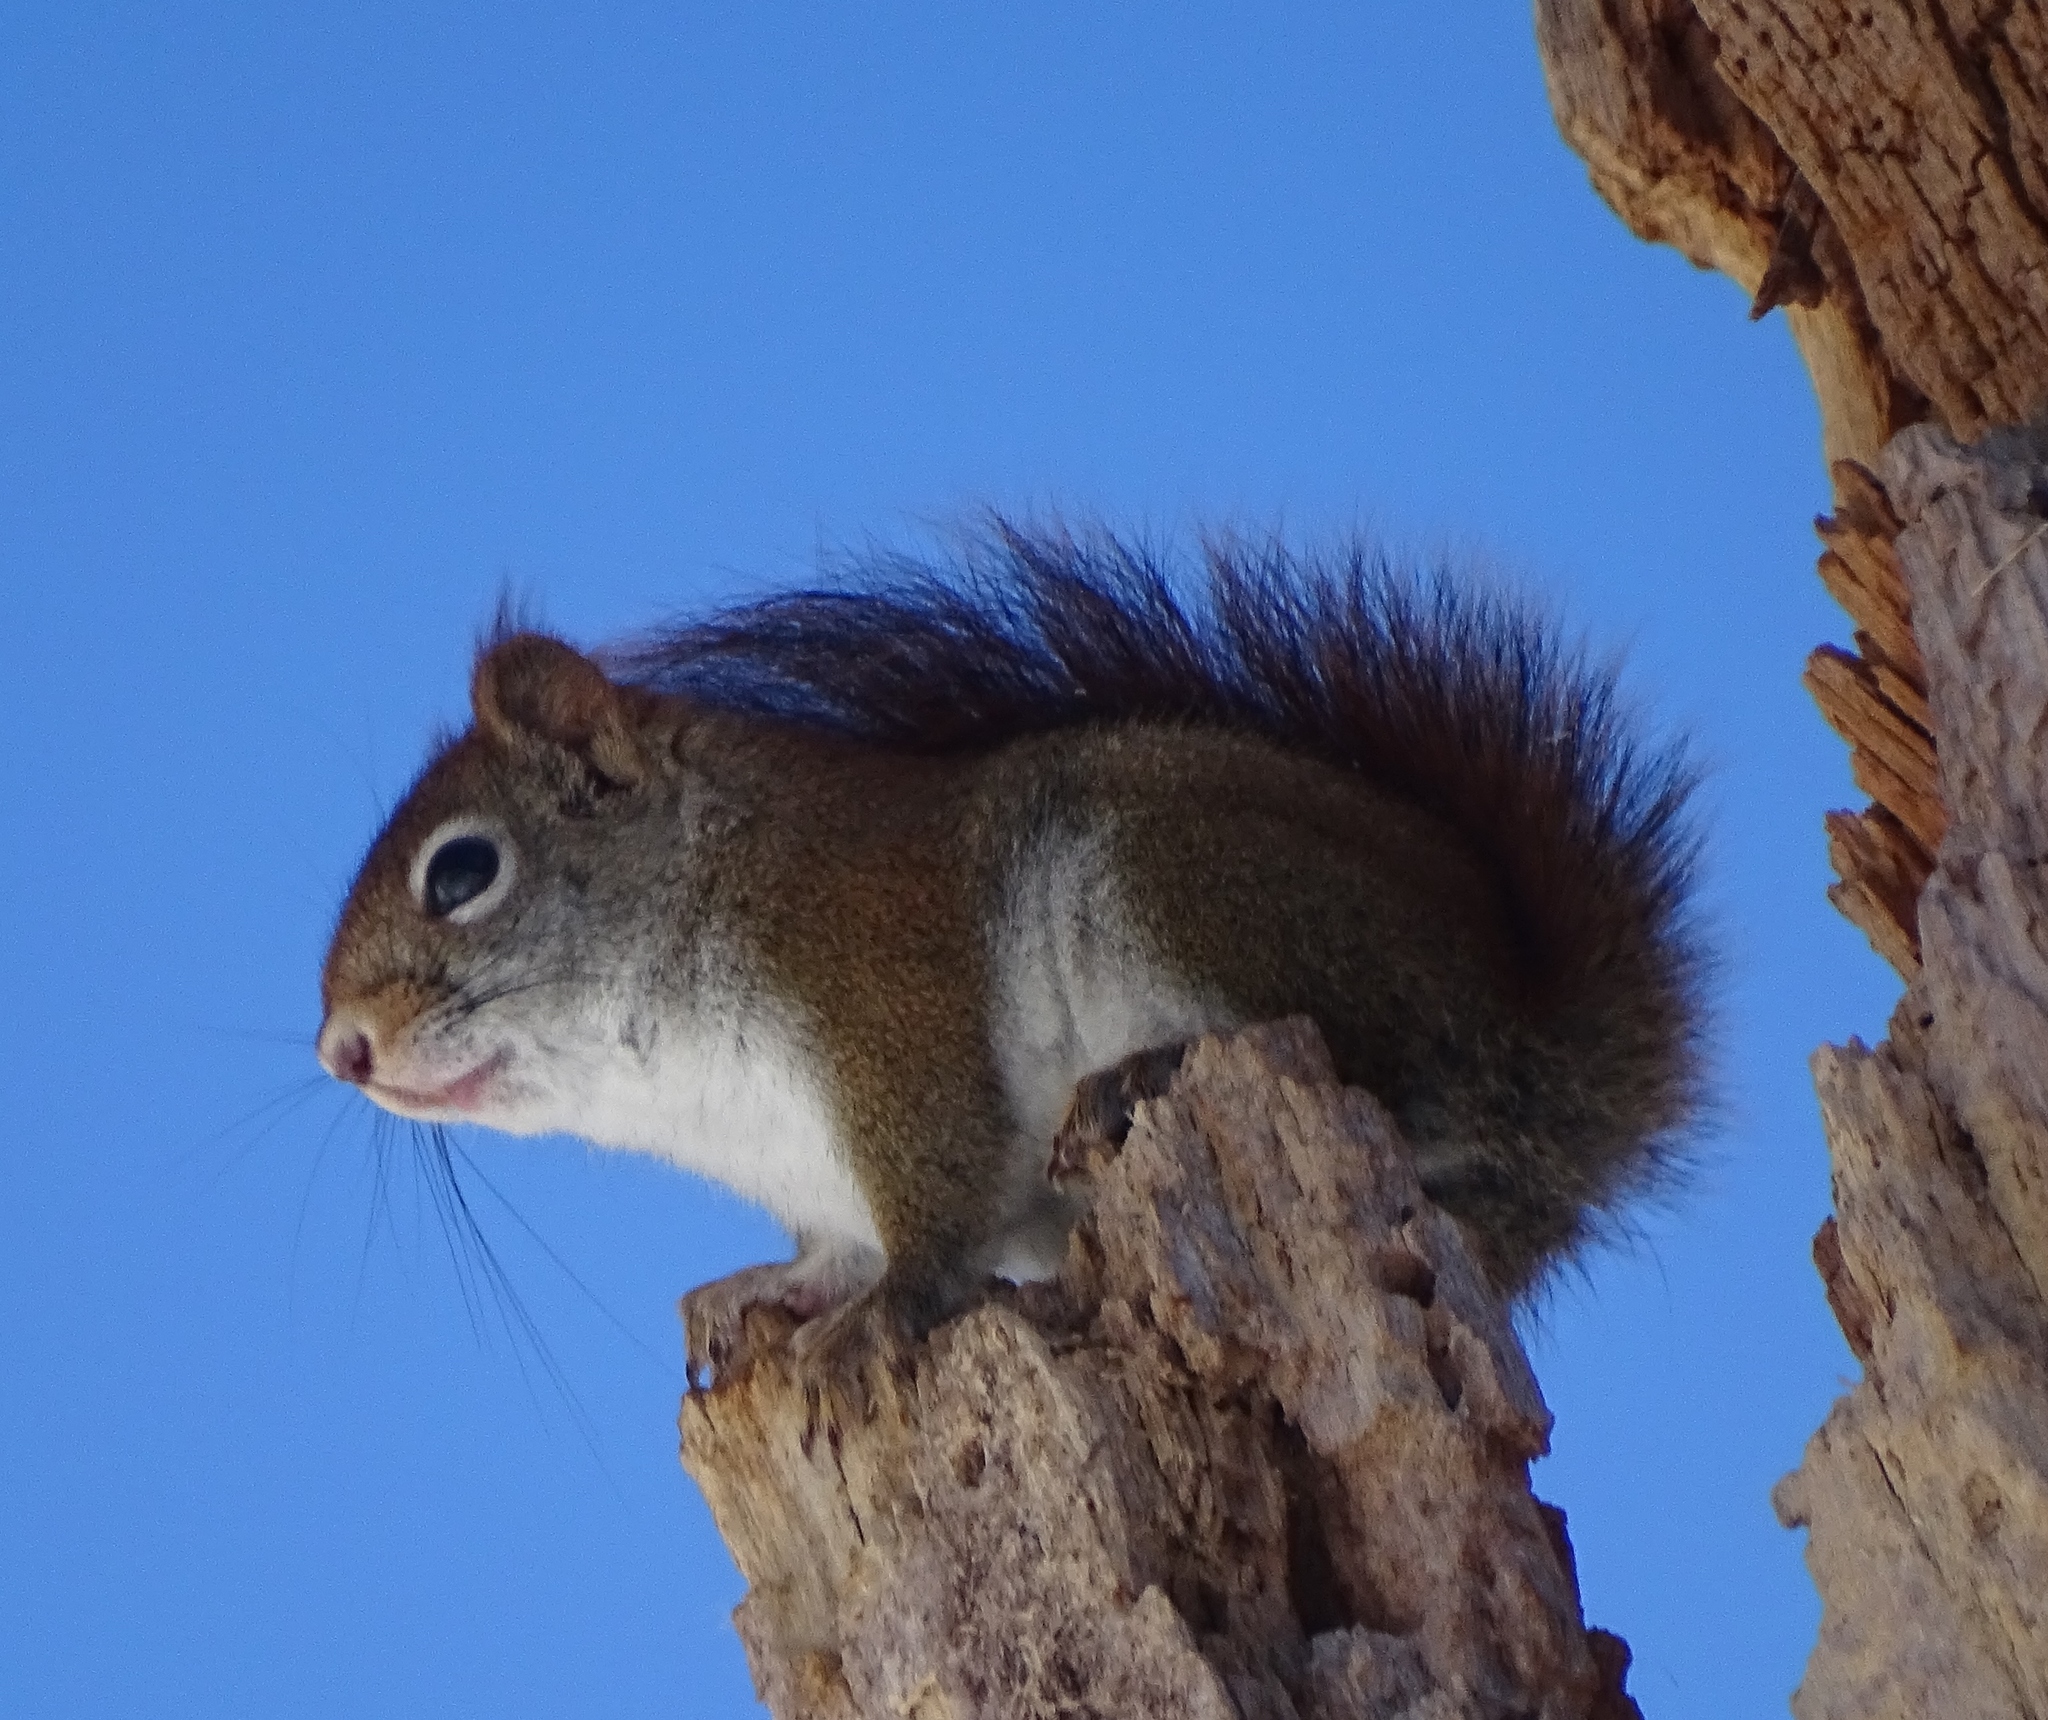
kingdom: Animalia
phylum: Chordata
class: Mammalia
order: Rodentia
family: Sciuridae
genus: Tamiasciurus
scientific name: Tamiasciurus hudsonicus
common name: Red squirrel
